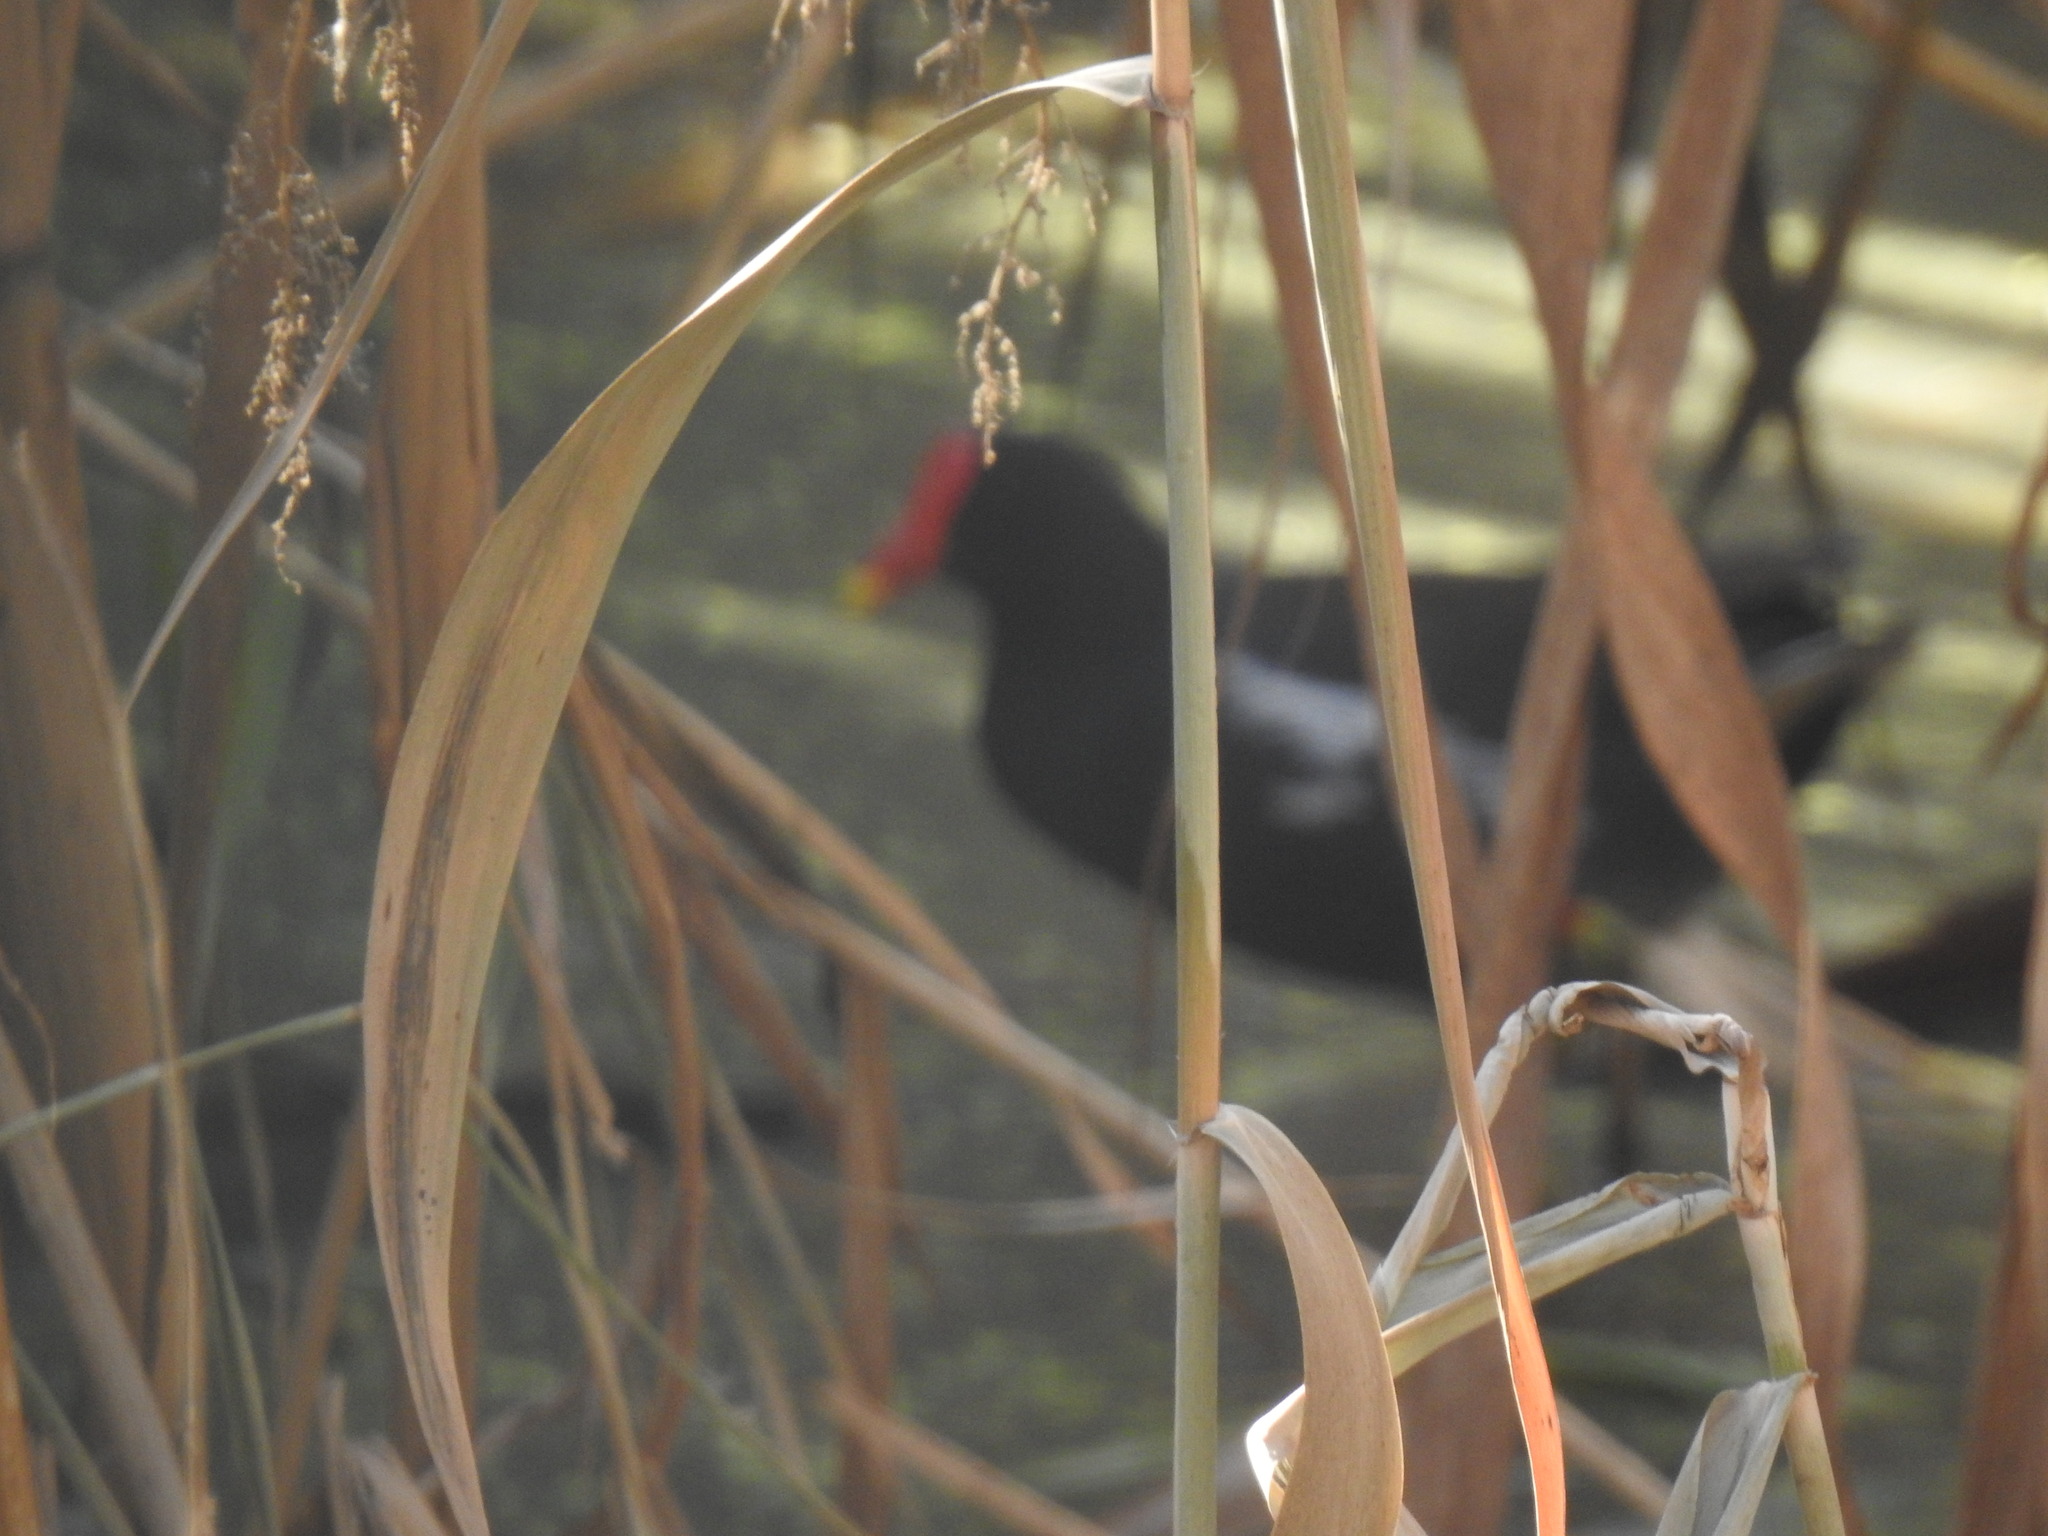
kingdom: Animalia
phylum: Chordata
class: Aves
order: Gruiformes
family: Rallidae
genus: Gallinula
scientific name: Gallinula chloropus
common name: Common moorhen
